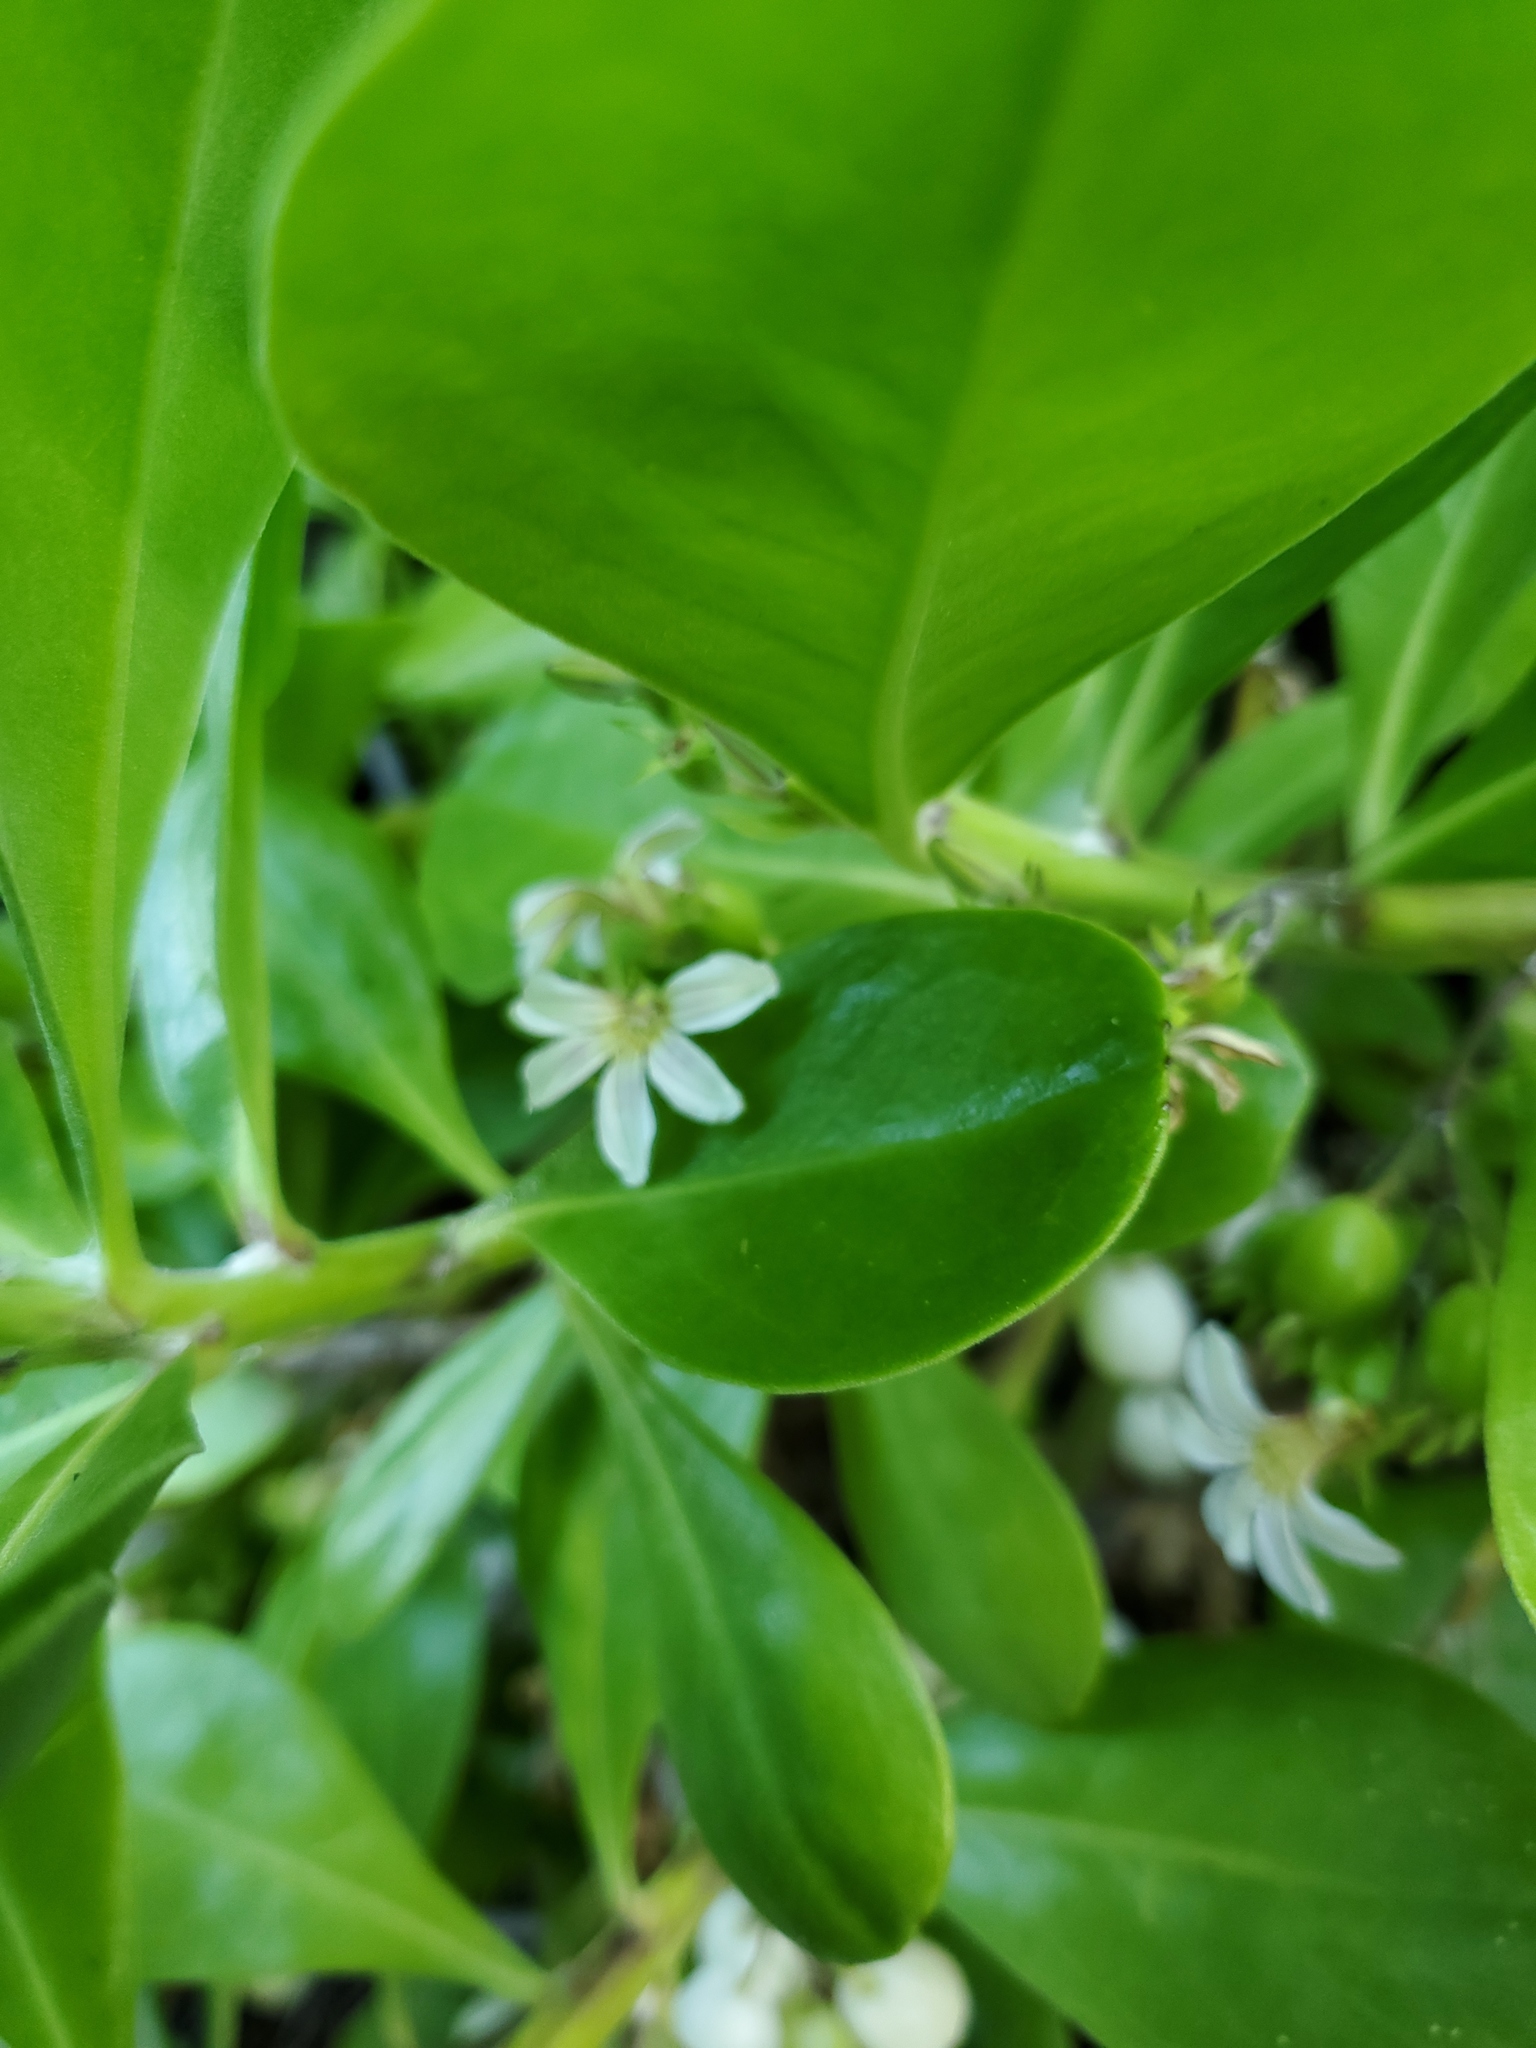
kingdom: Plantae
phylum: Tracheophyta
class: Magnoliopsida
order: Asterales
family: Goodeniaceae
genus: Scaevola
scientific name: Scaevola taccada
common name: Sea lettucetree
